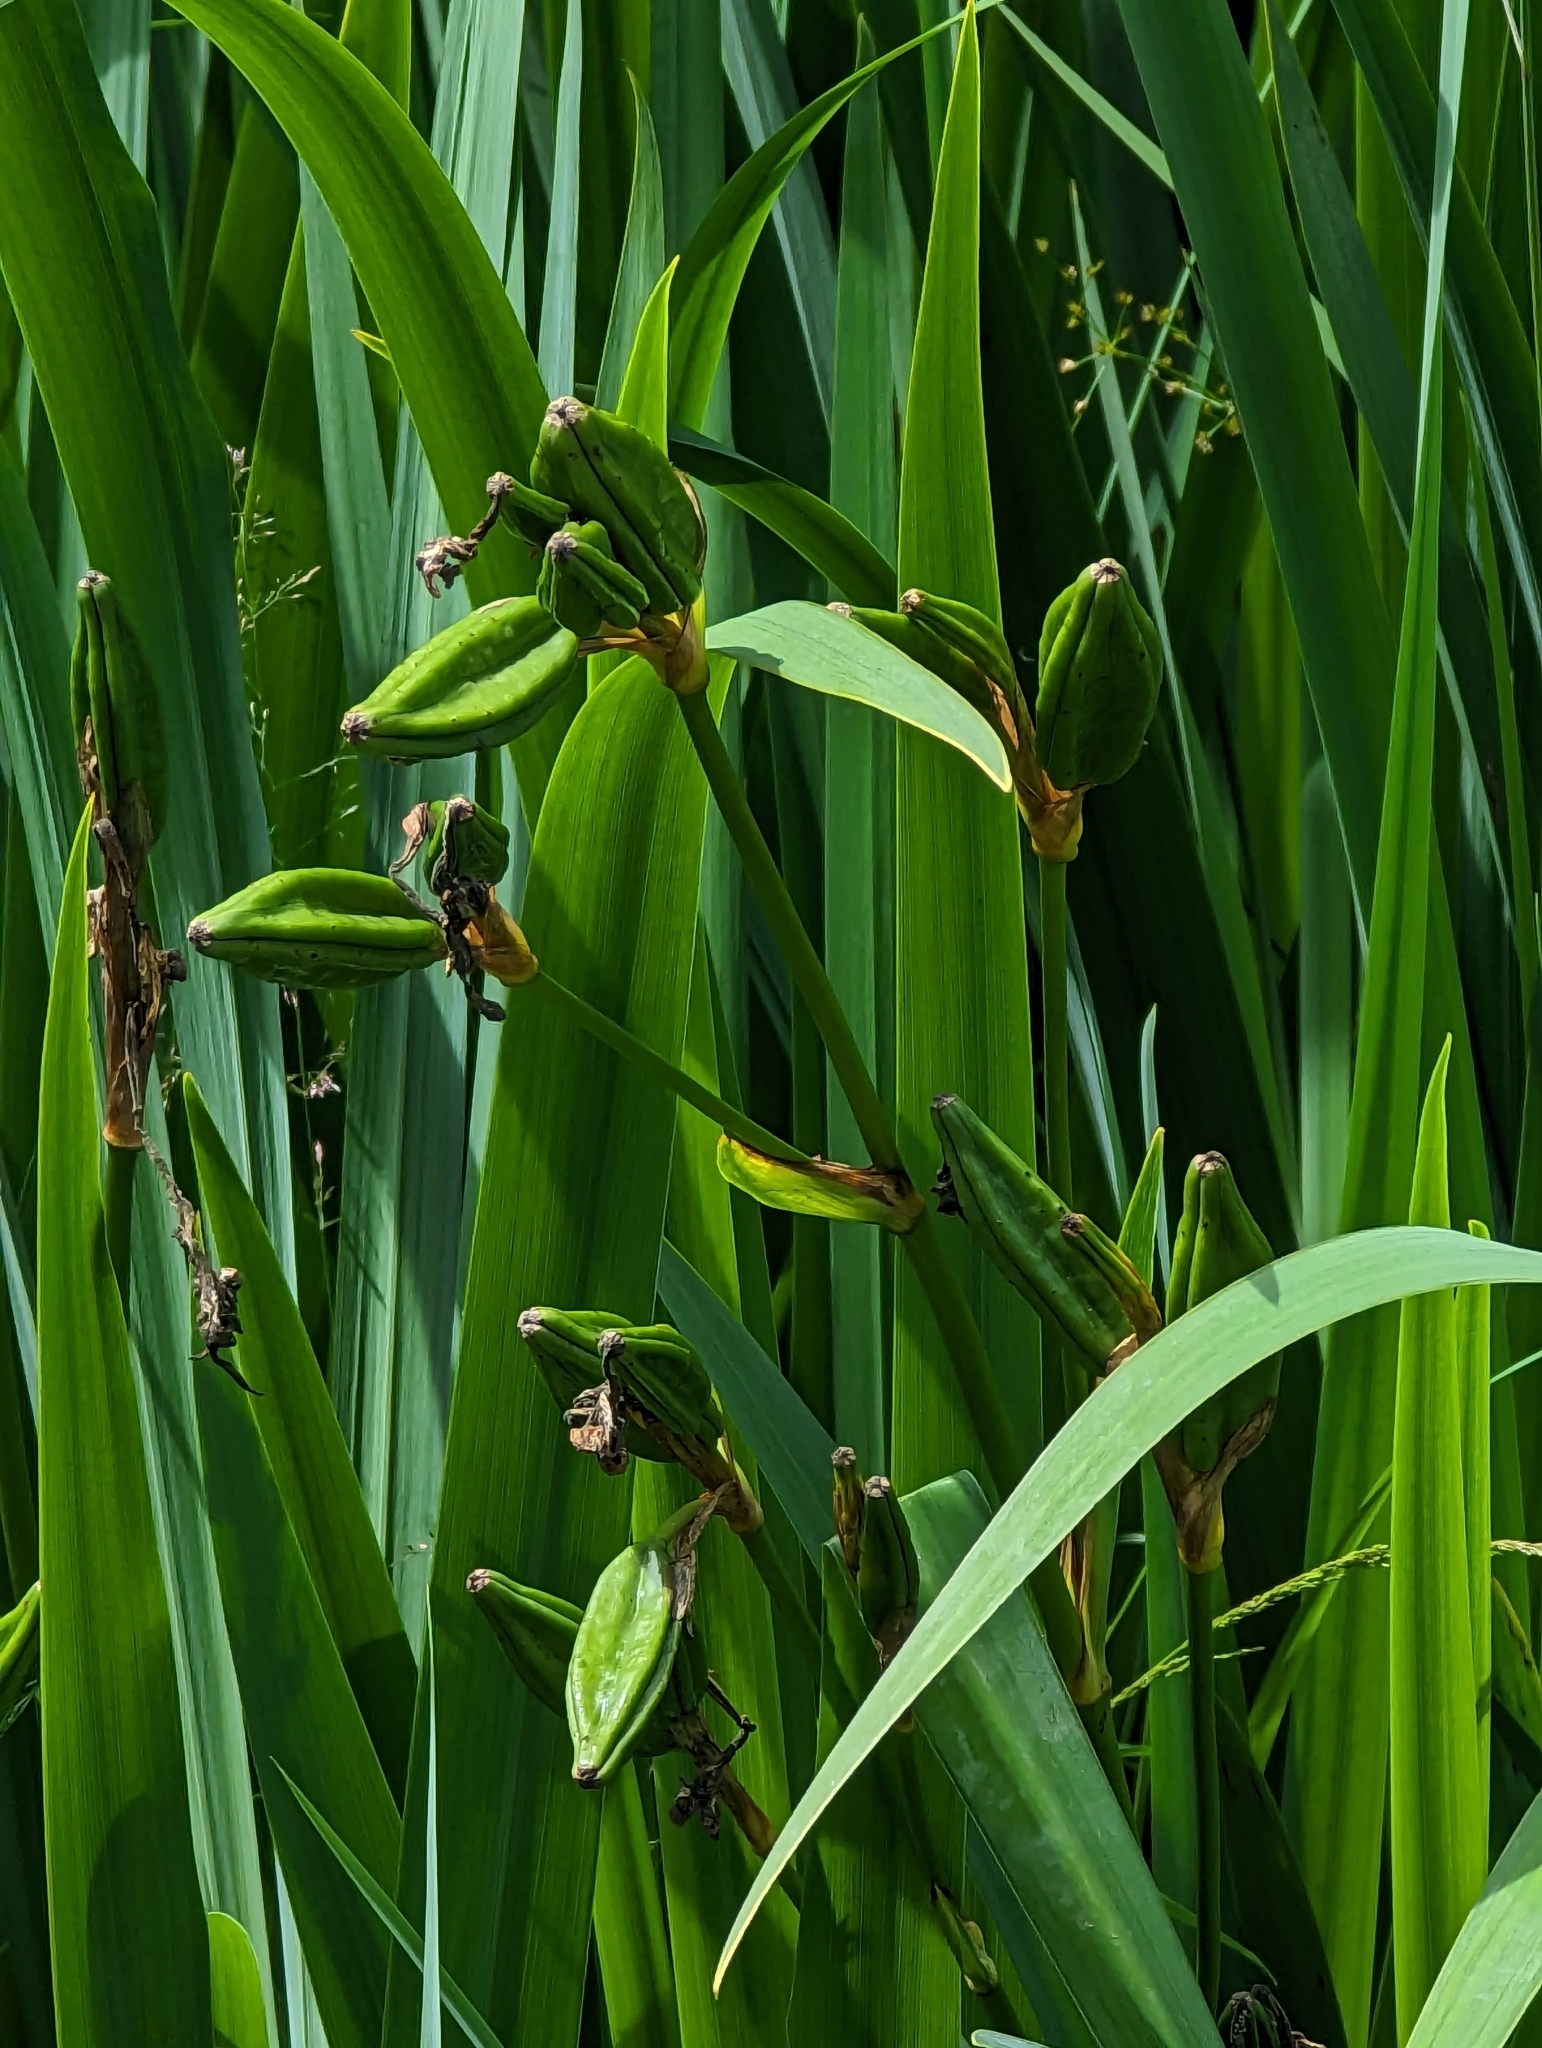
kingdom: Plantae
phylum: Tracheophyta
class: Liliopsida
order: Asparagales
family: Iridaceae
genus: Iris
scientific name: Iris pseudacorus
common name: Yellow flag
